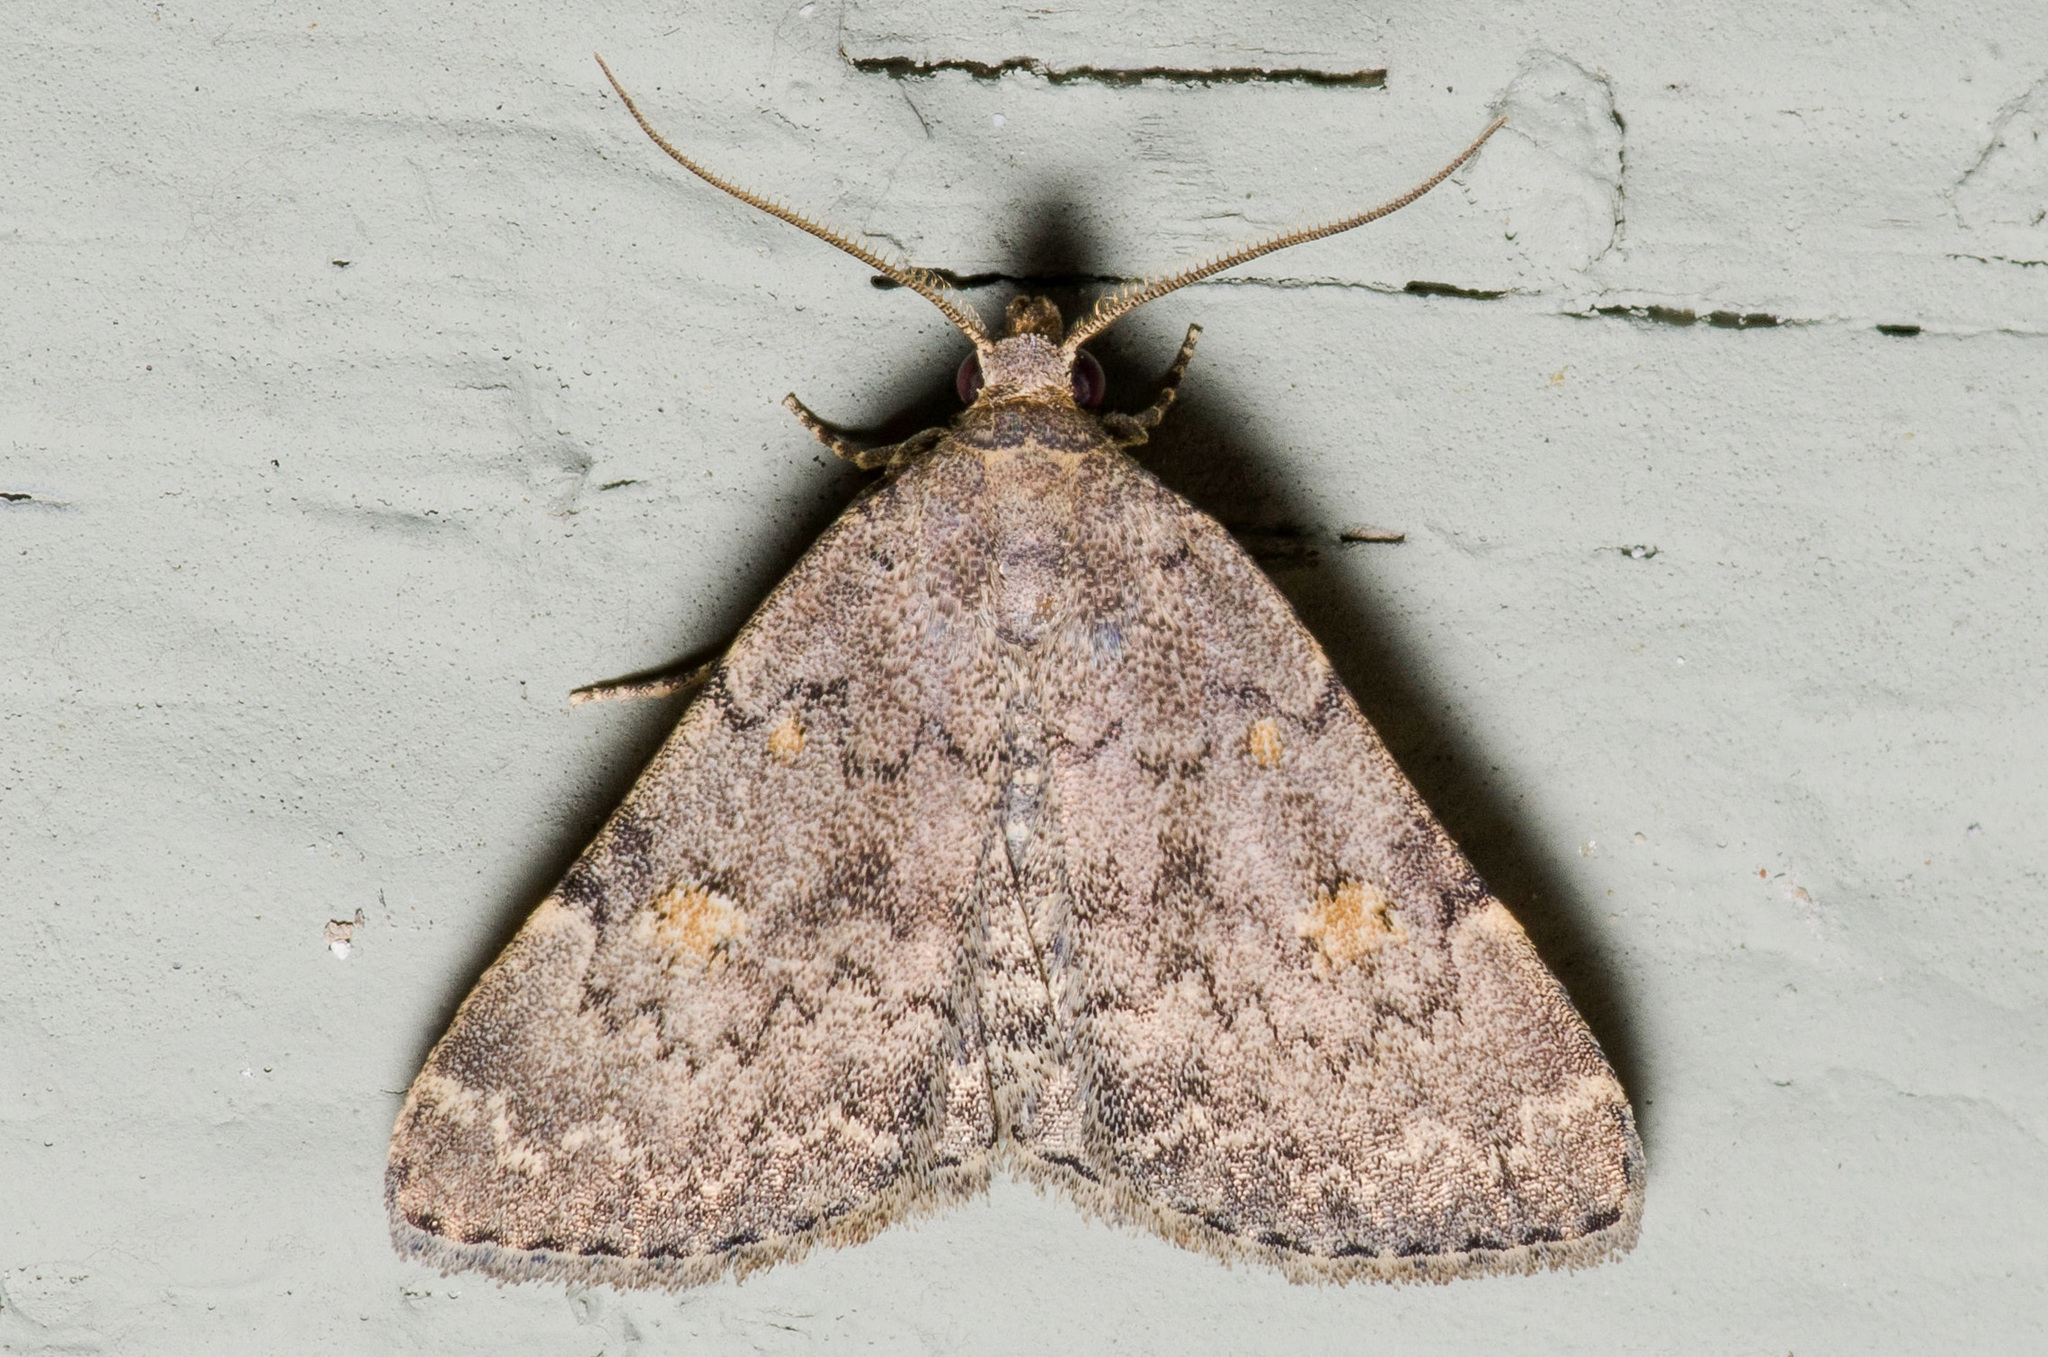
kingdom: Animalia
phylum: Arthropoda
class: Insecta
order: Lepidoptera
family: Erebidae
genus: Idia
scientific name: Idia aemula
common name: Common idia moth
